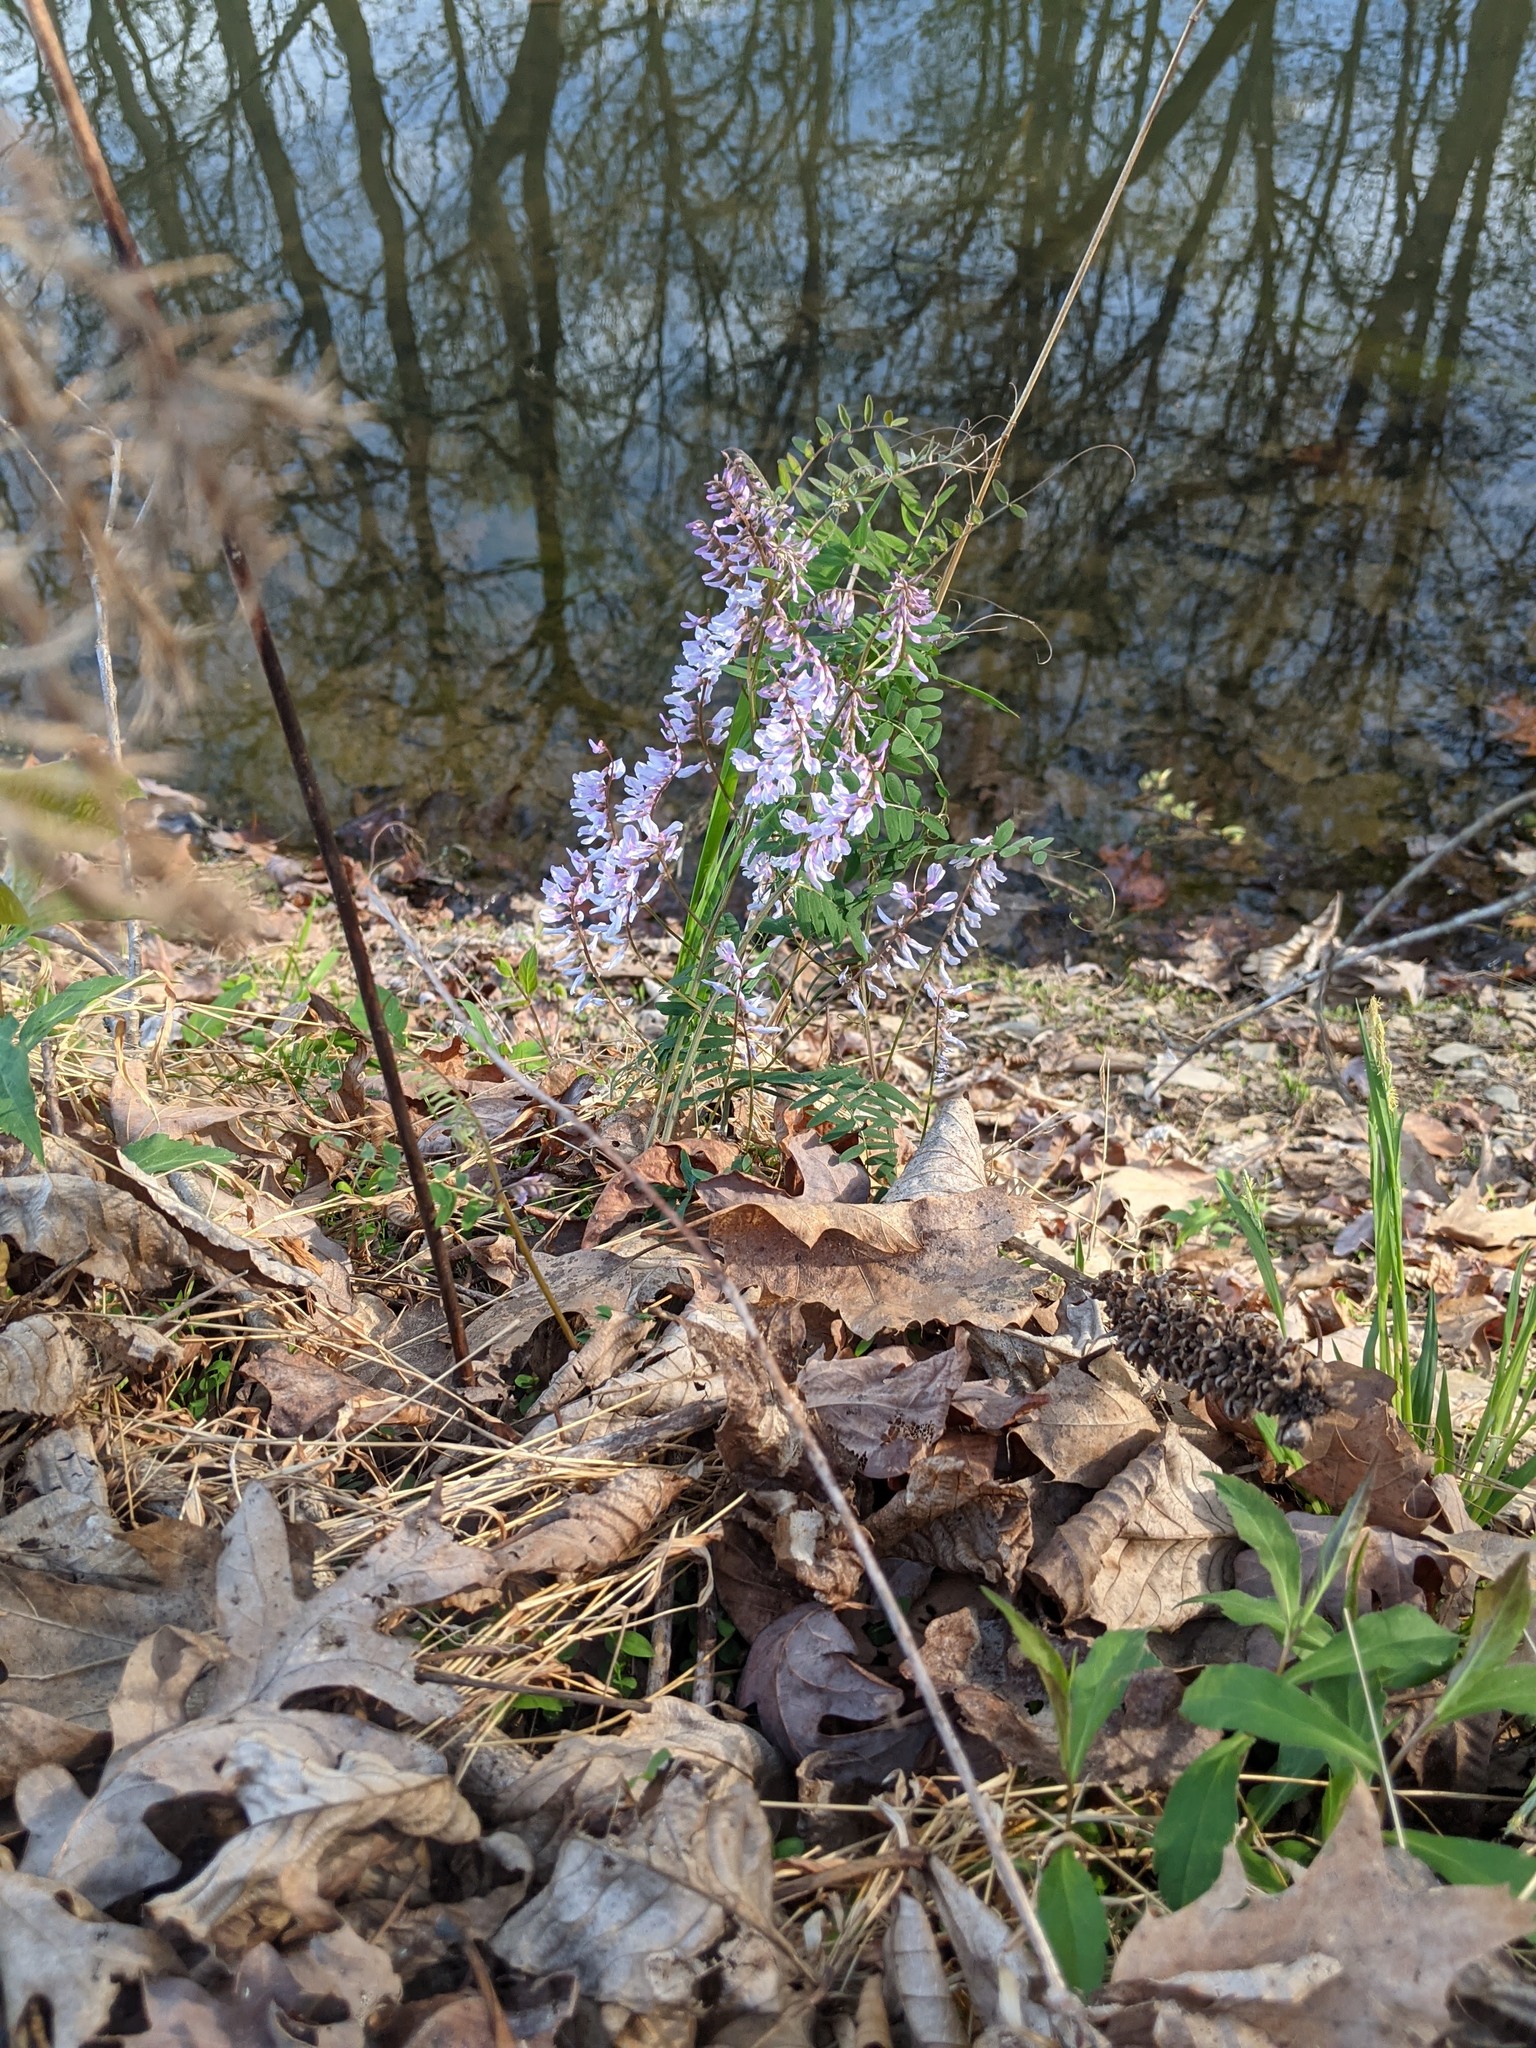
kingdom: Plantae
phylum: Tracheophyta
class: Magnoliopsida
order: Fabales
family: Fabaceae
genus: Vicia
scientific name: Vicia caroliniana
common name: Carolina vetch
